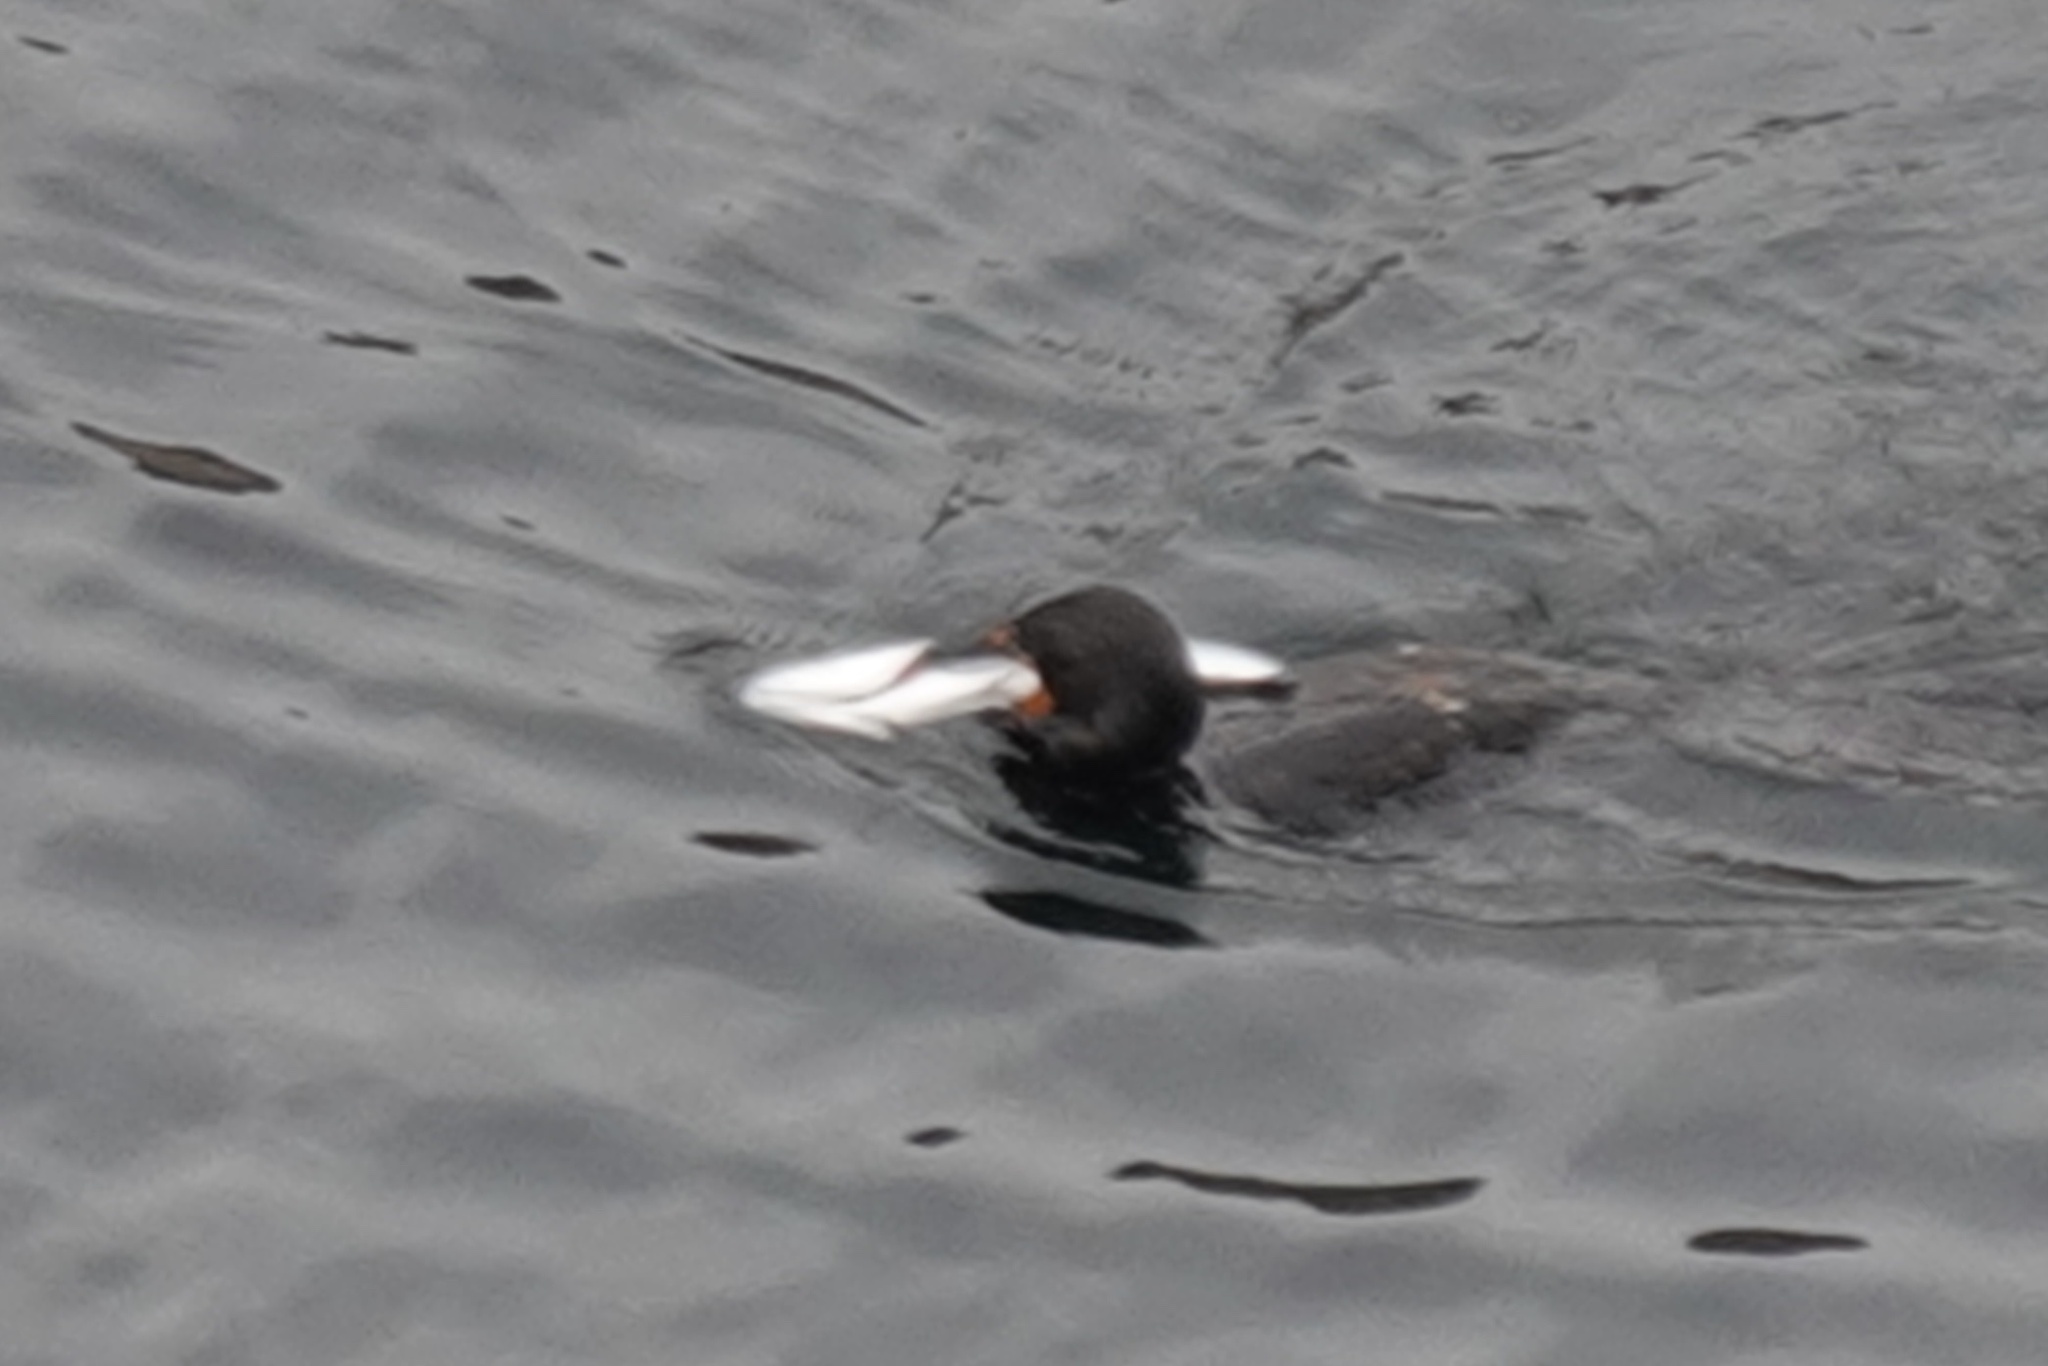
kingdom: Animalia
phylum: Chordata
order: Perciformes
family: Moronidae
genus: Morone
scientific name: Morone saxatilis
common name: Striped bass
